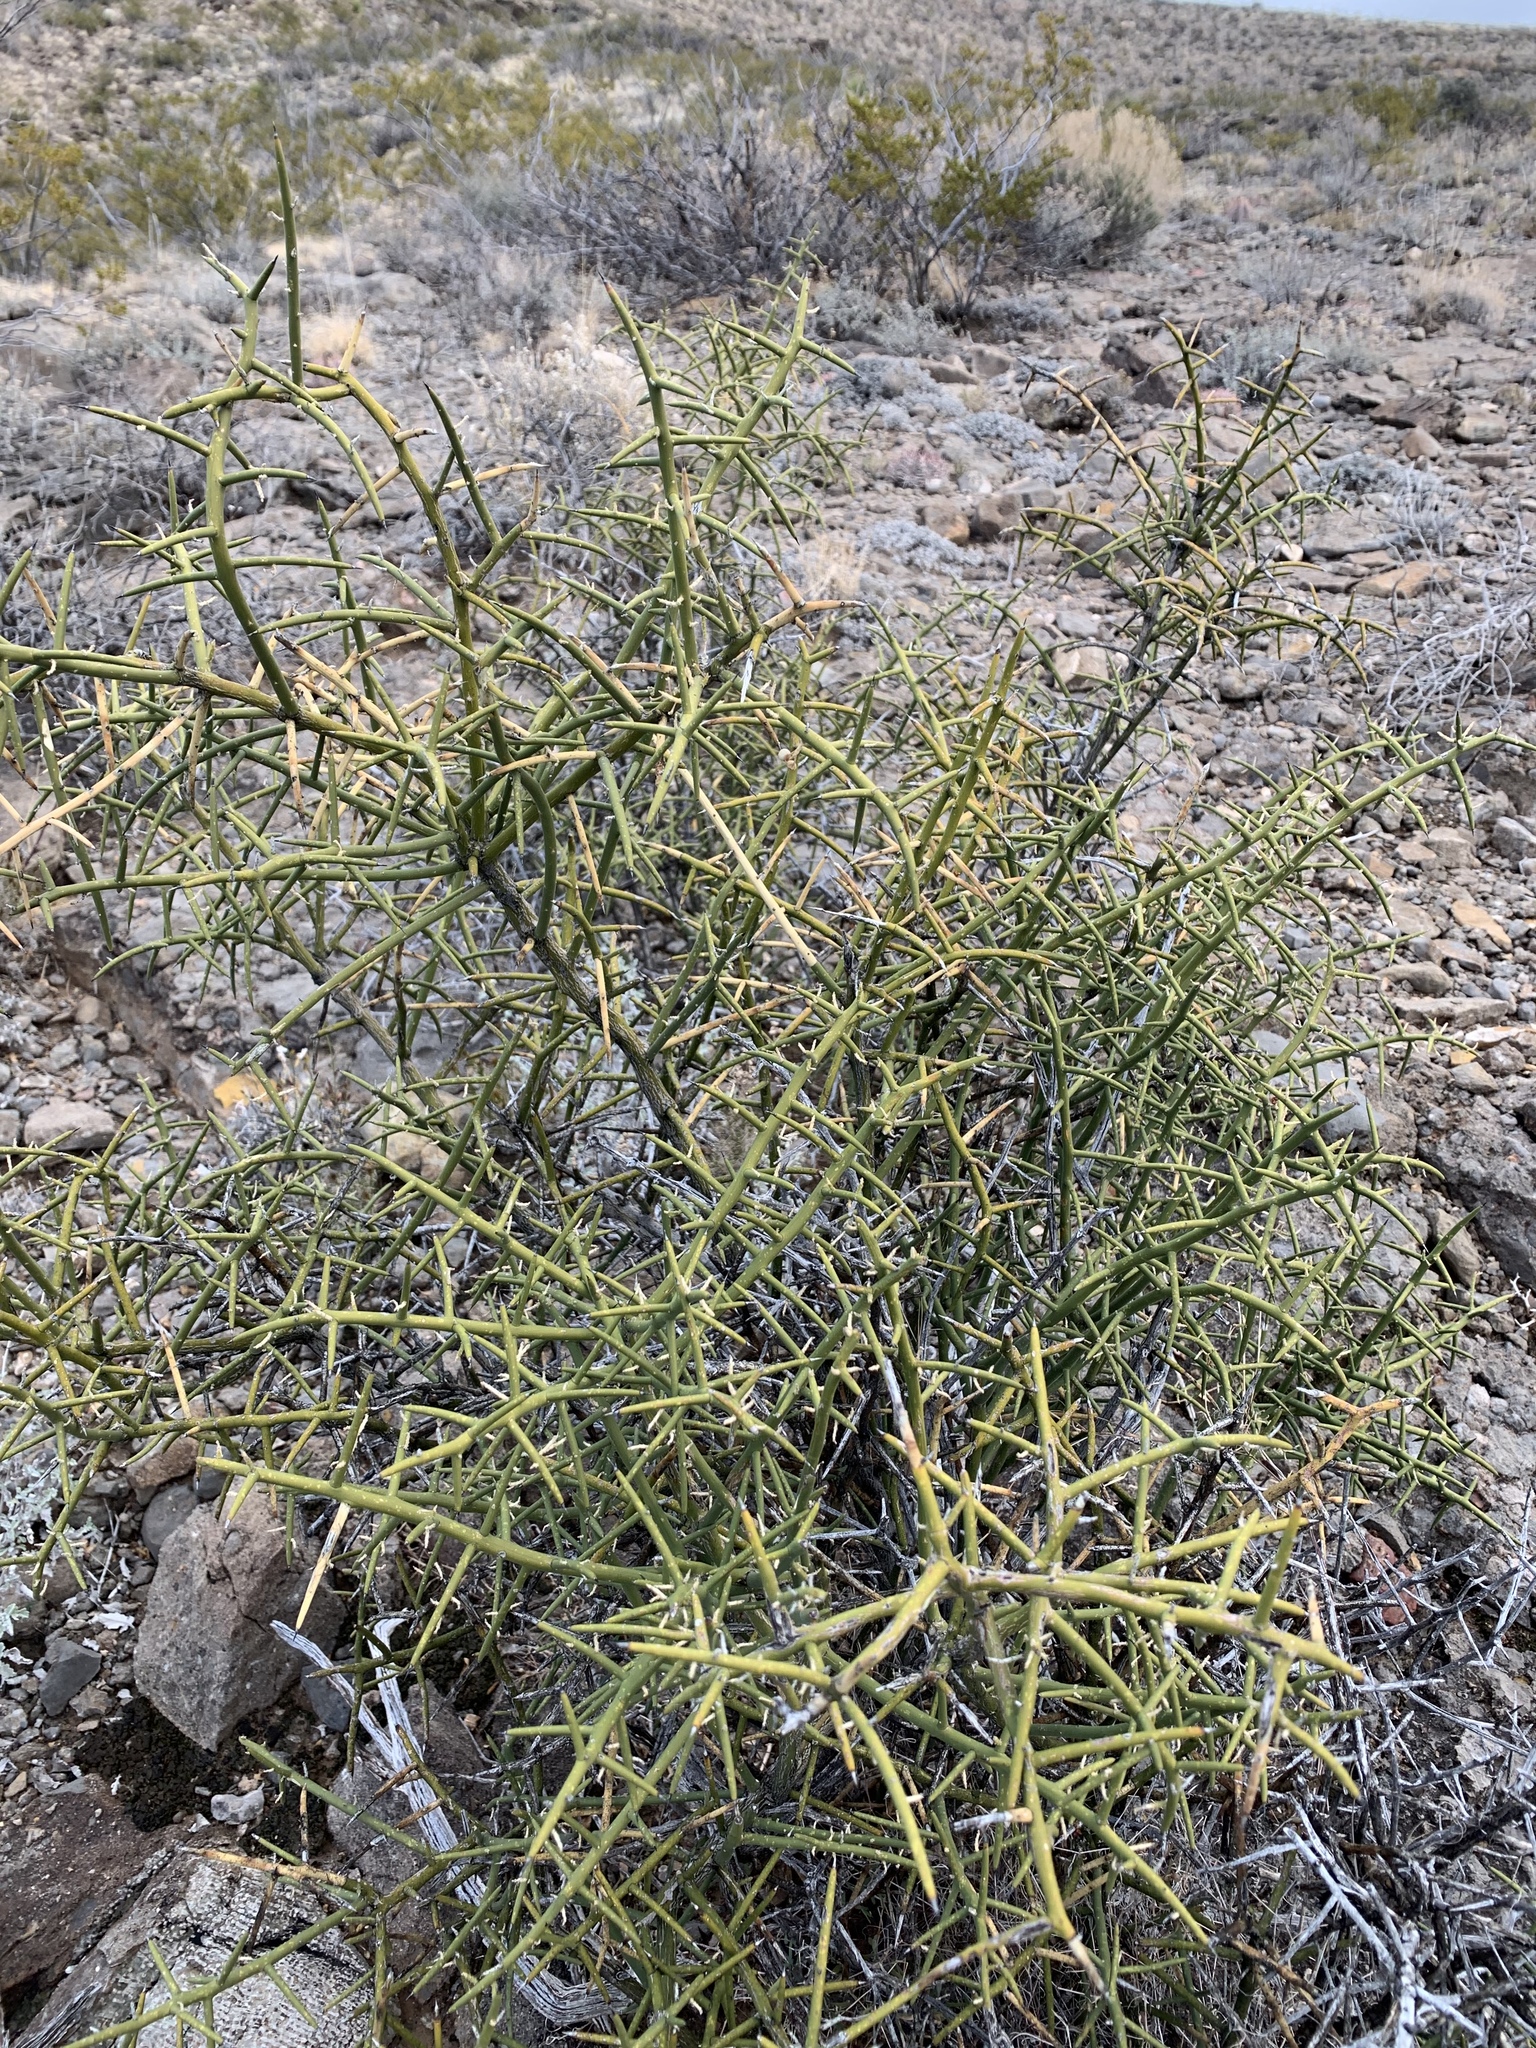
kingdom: Plantae
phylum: Tracheophyta
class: Magnoliopsida
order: Brassicales
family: Koeberliniaceae
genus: Koeberlinia
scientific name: Koeberlinia spinosa
